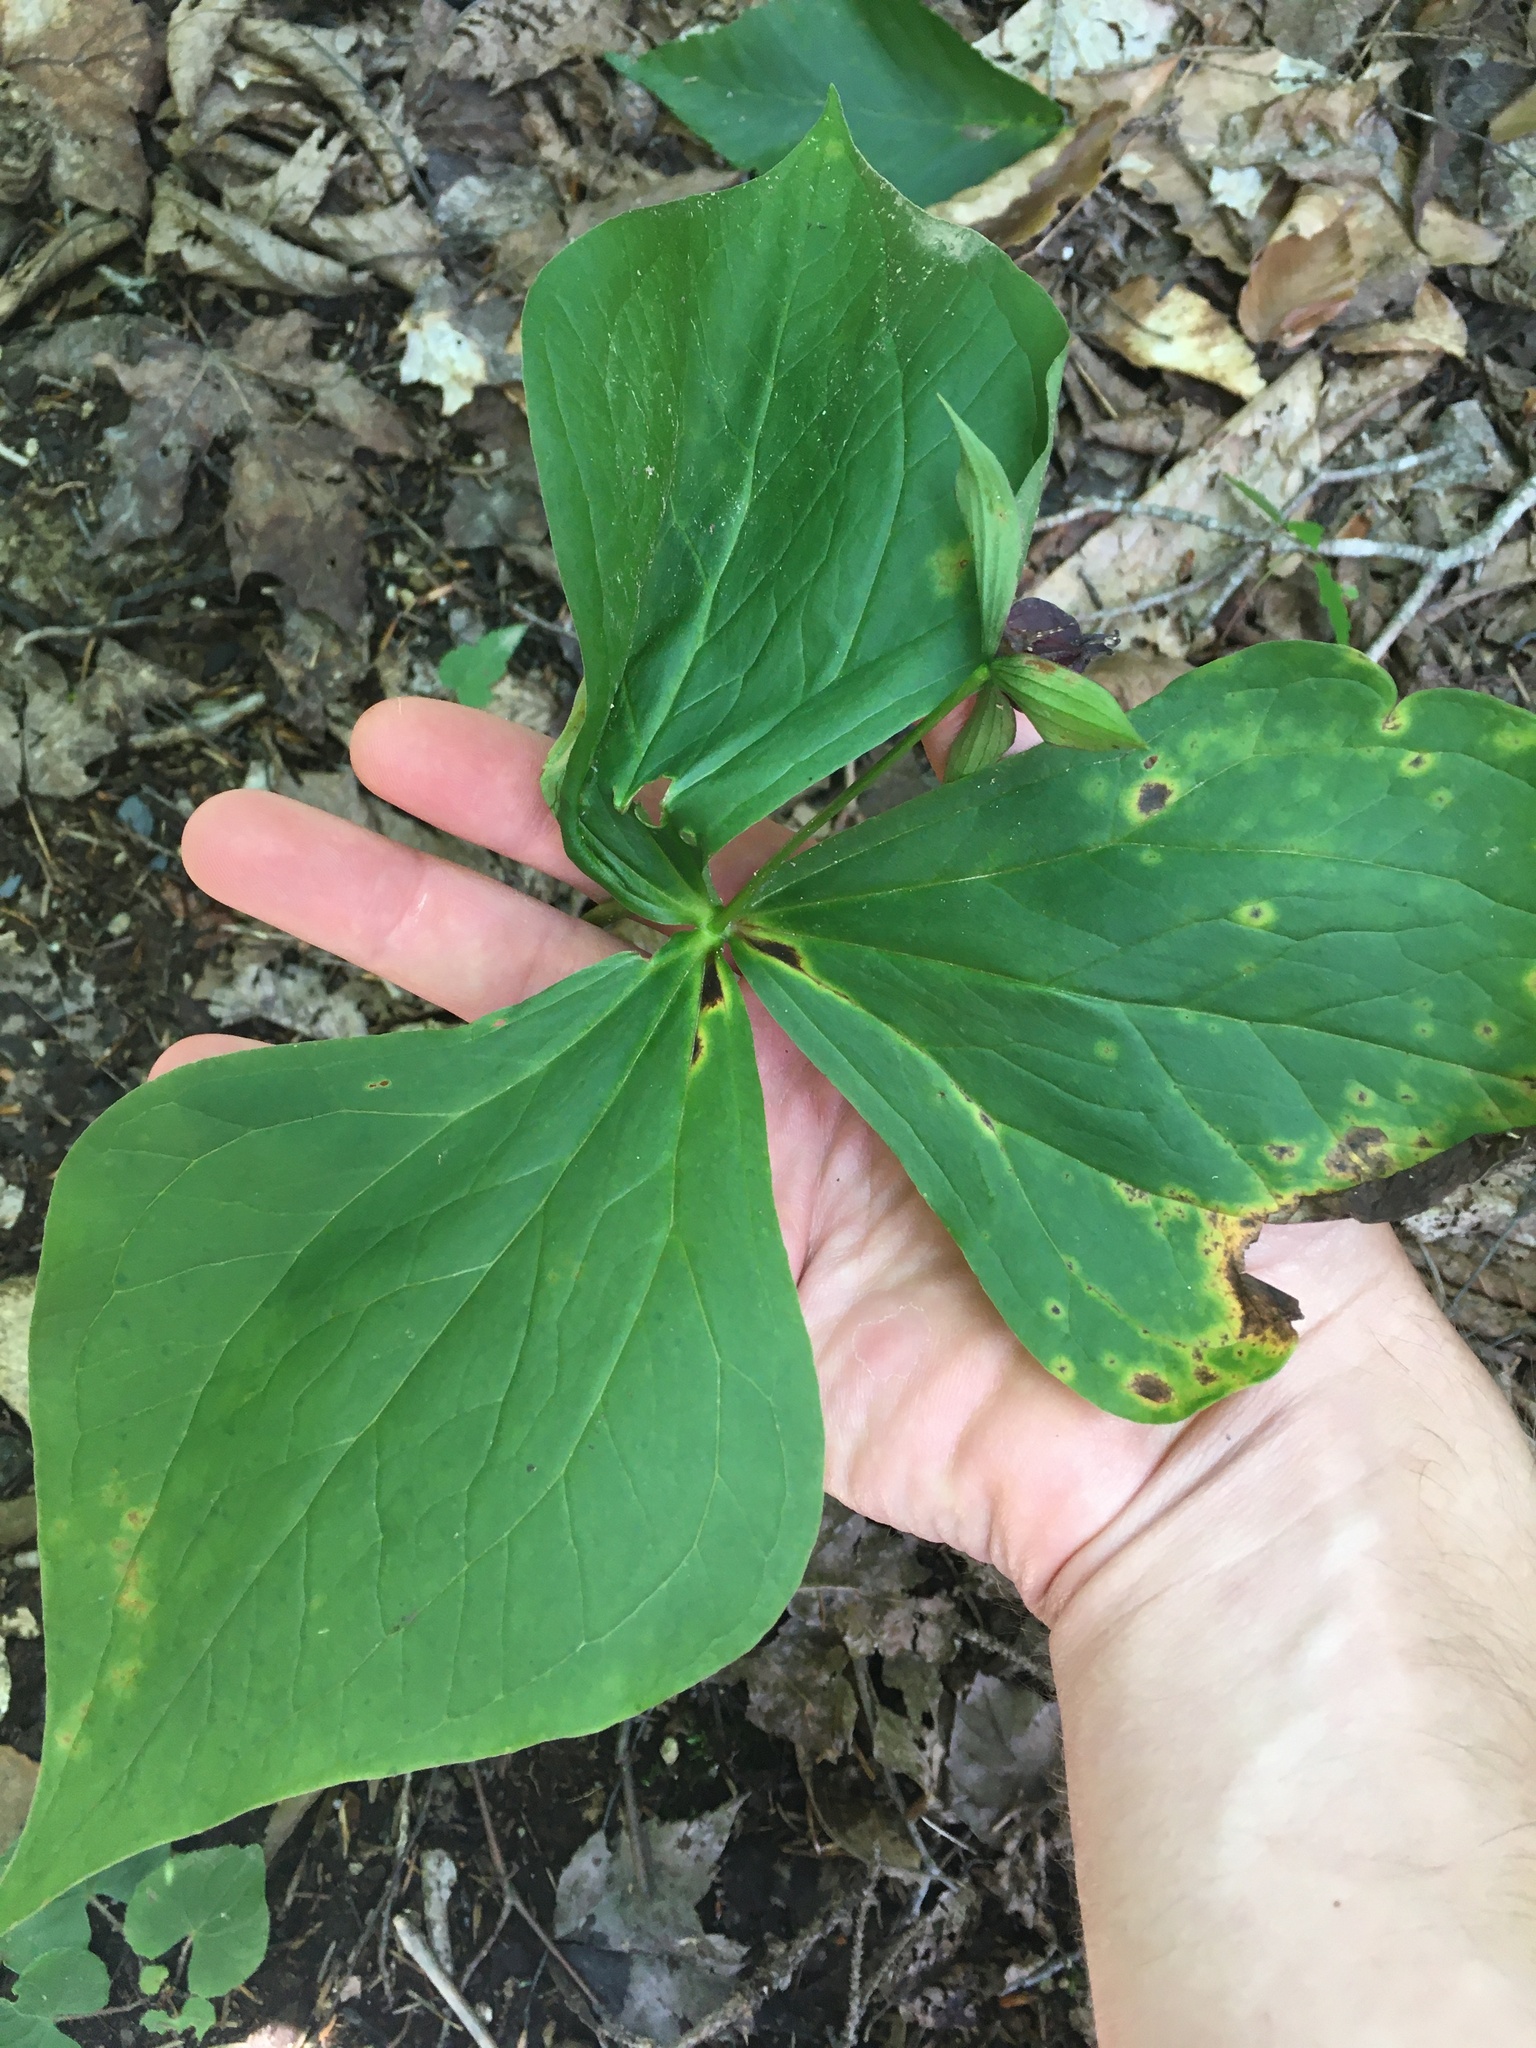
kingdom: Plantae
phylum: Tracheophyta
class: Liliopsida
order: Liliales
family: Melanthiaceae
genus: Trillium
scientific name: Trillium erectum
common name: Purple trillium
